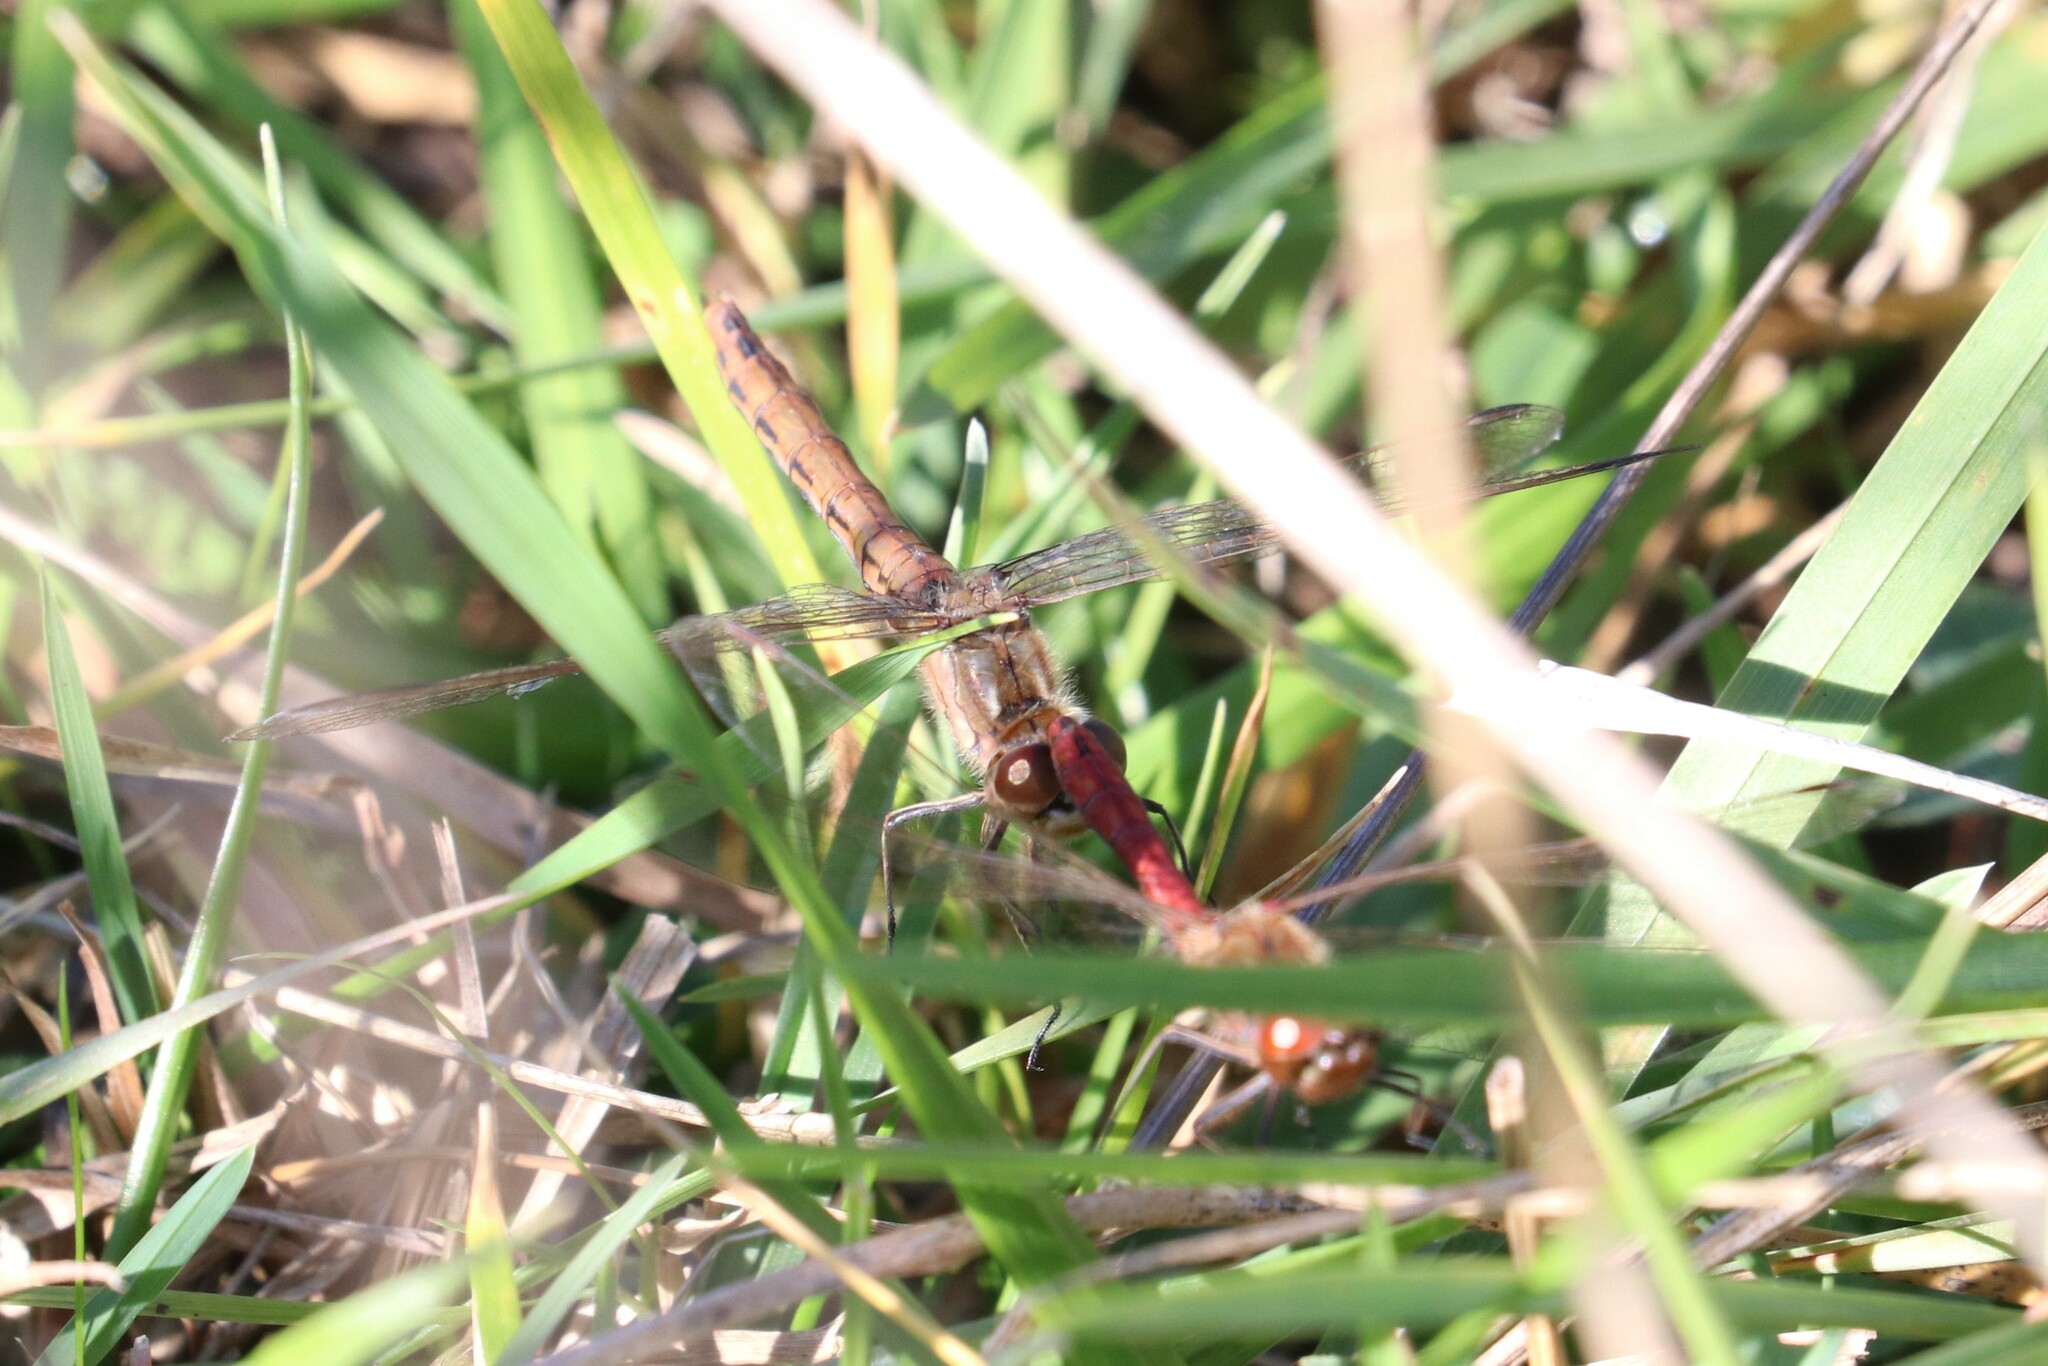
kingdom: Animalia
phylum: Arthropoda
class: Insecta
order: Odonata
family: Libellulidae
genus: Sympetrum
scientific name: Sympetrum vulgatum
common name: Vagrant darter
